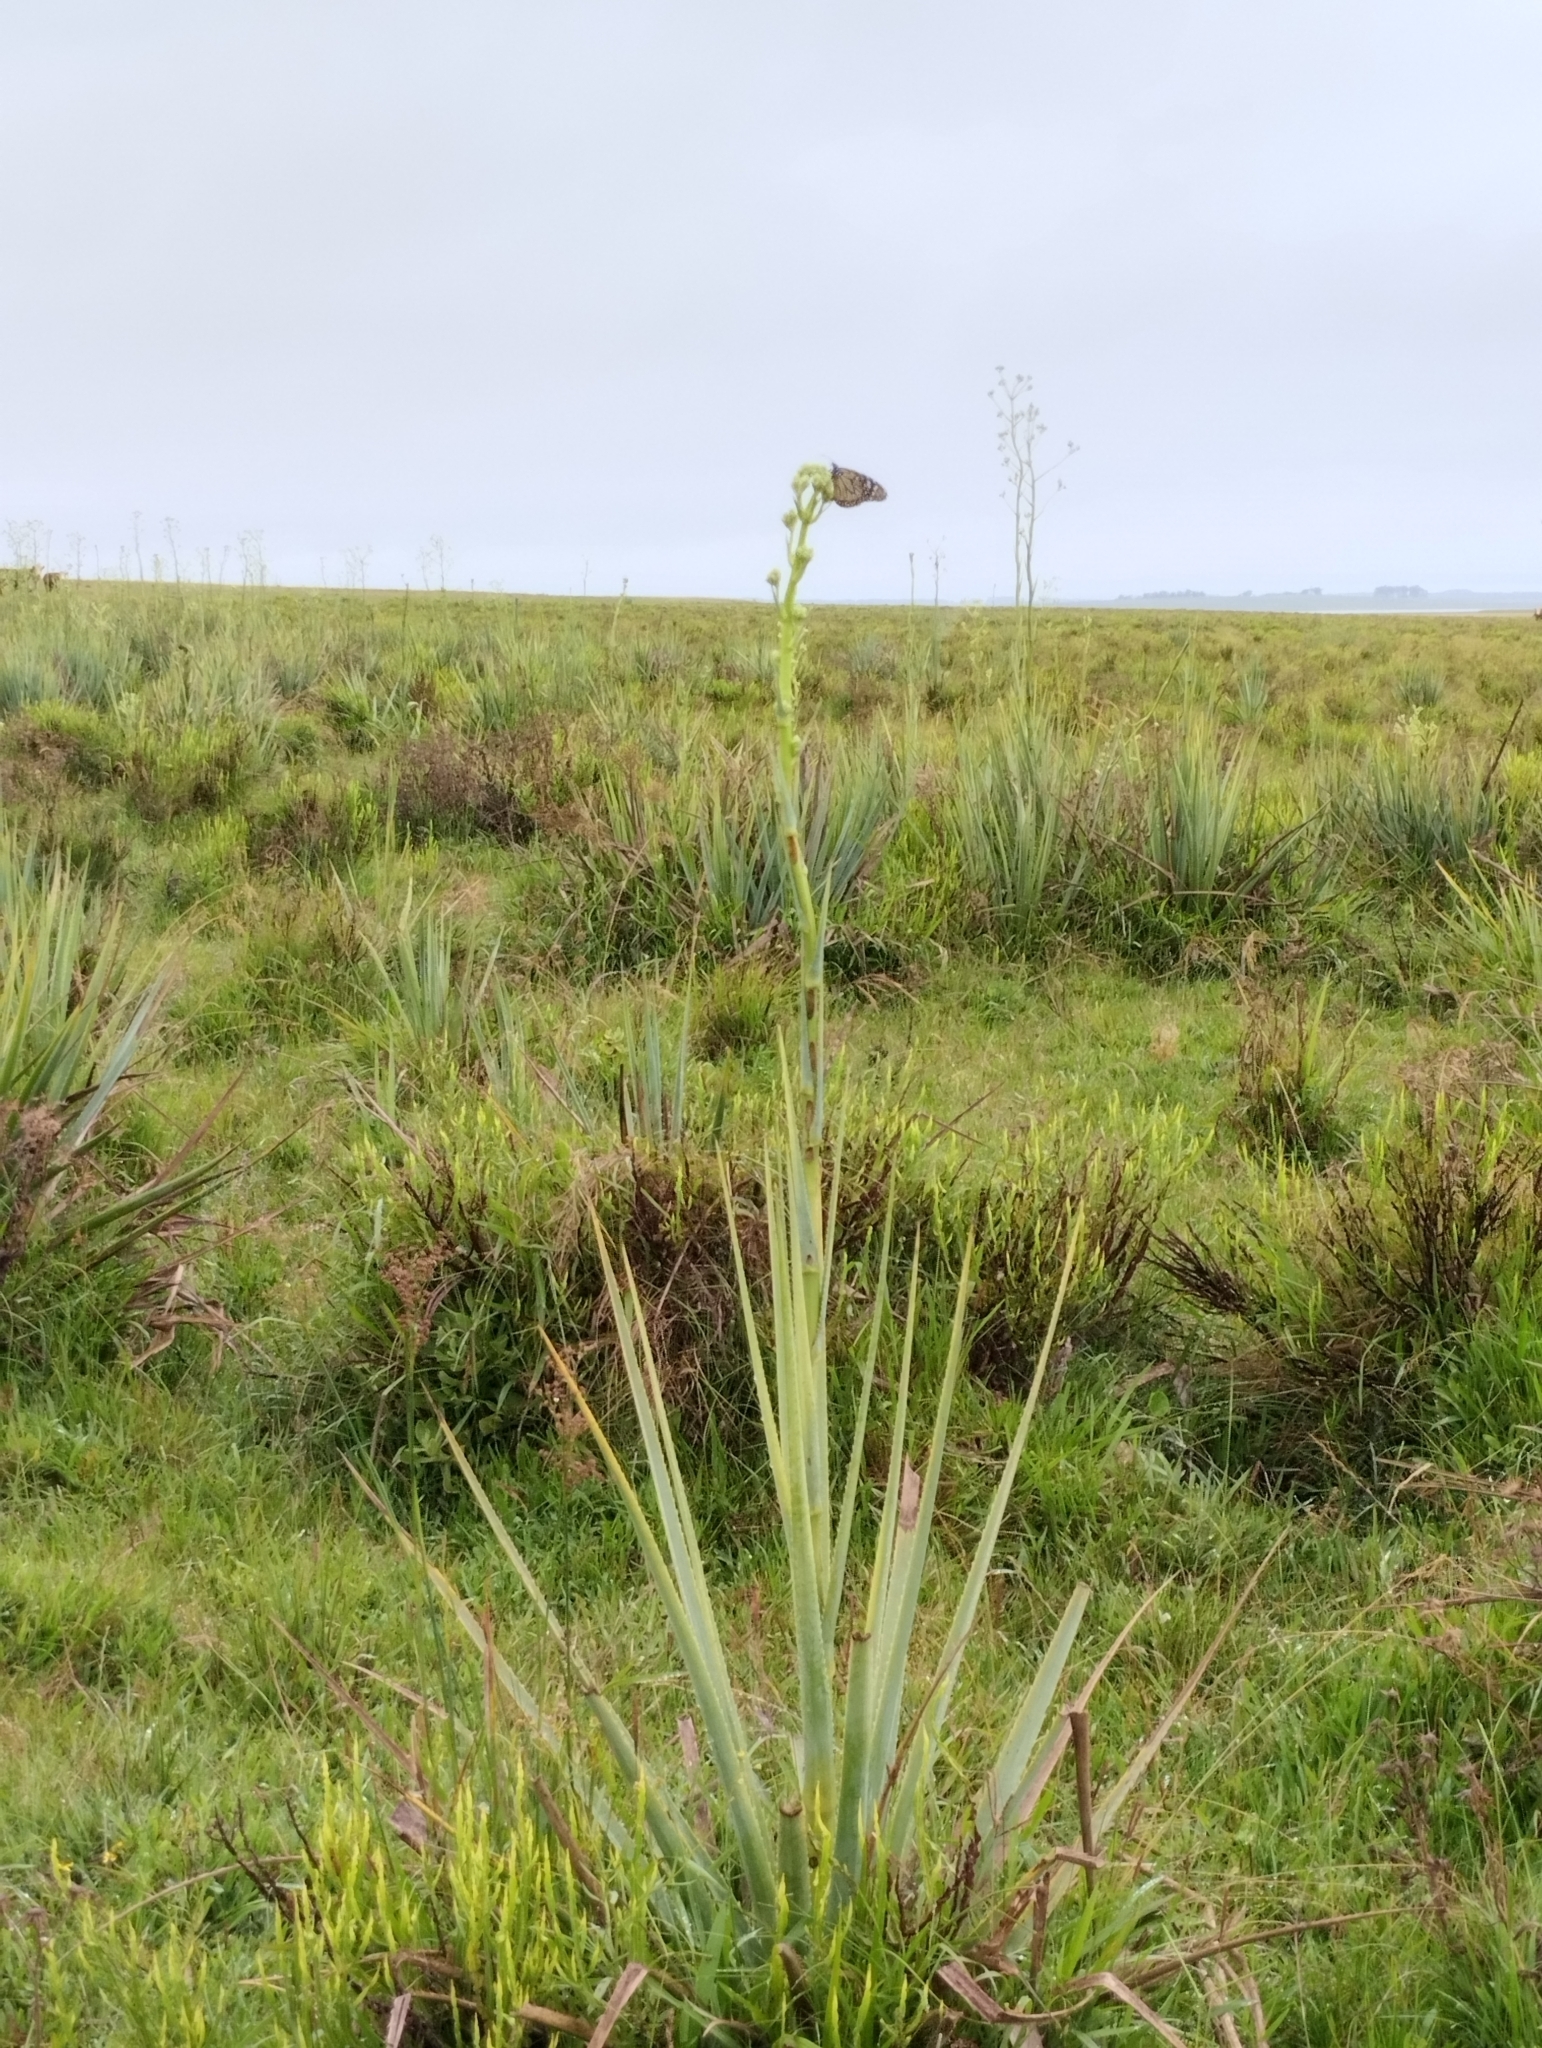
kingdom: Animalia
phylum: Arthropoda
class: Insecta
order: Lepidoptera
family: Nymphalidae
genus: Danaus
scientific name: Danaus erippus
